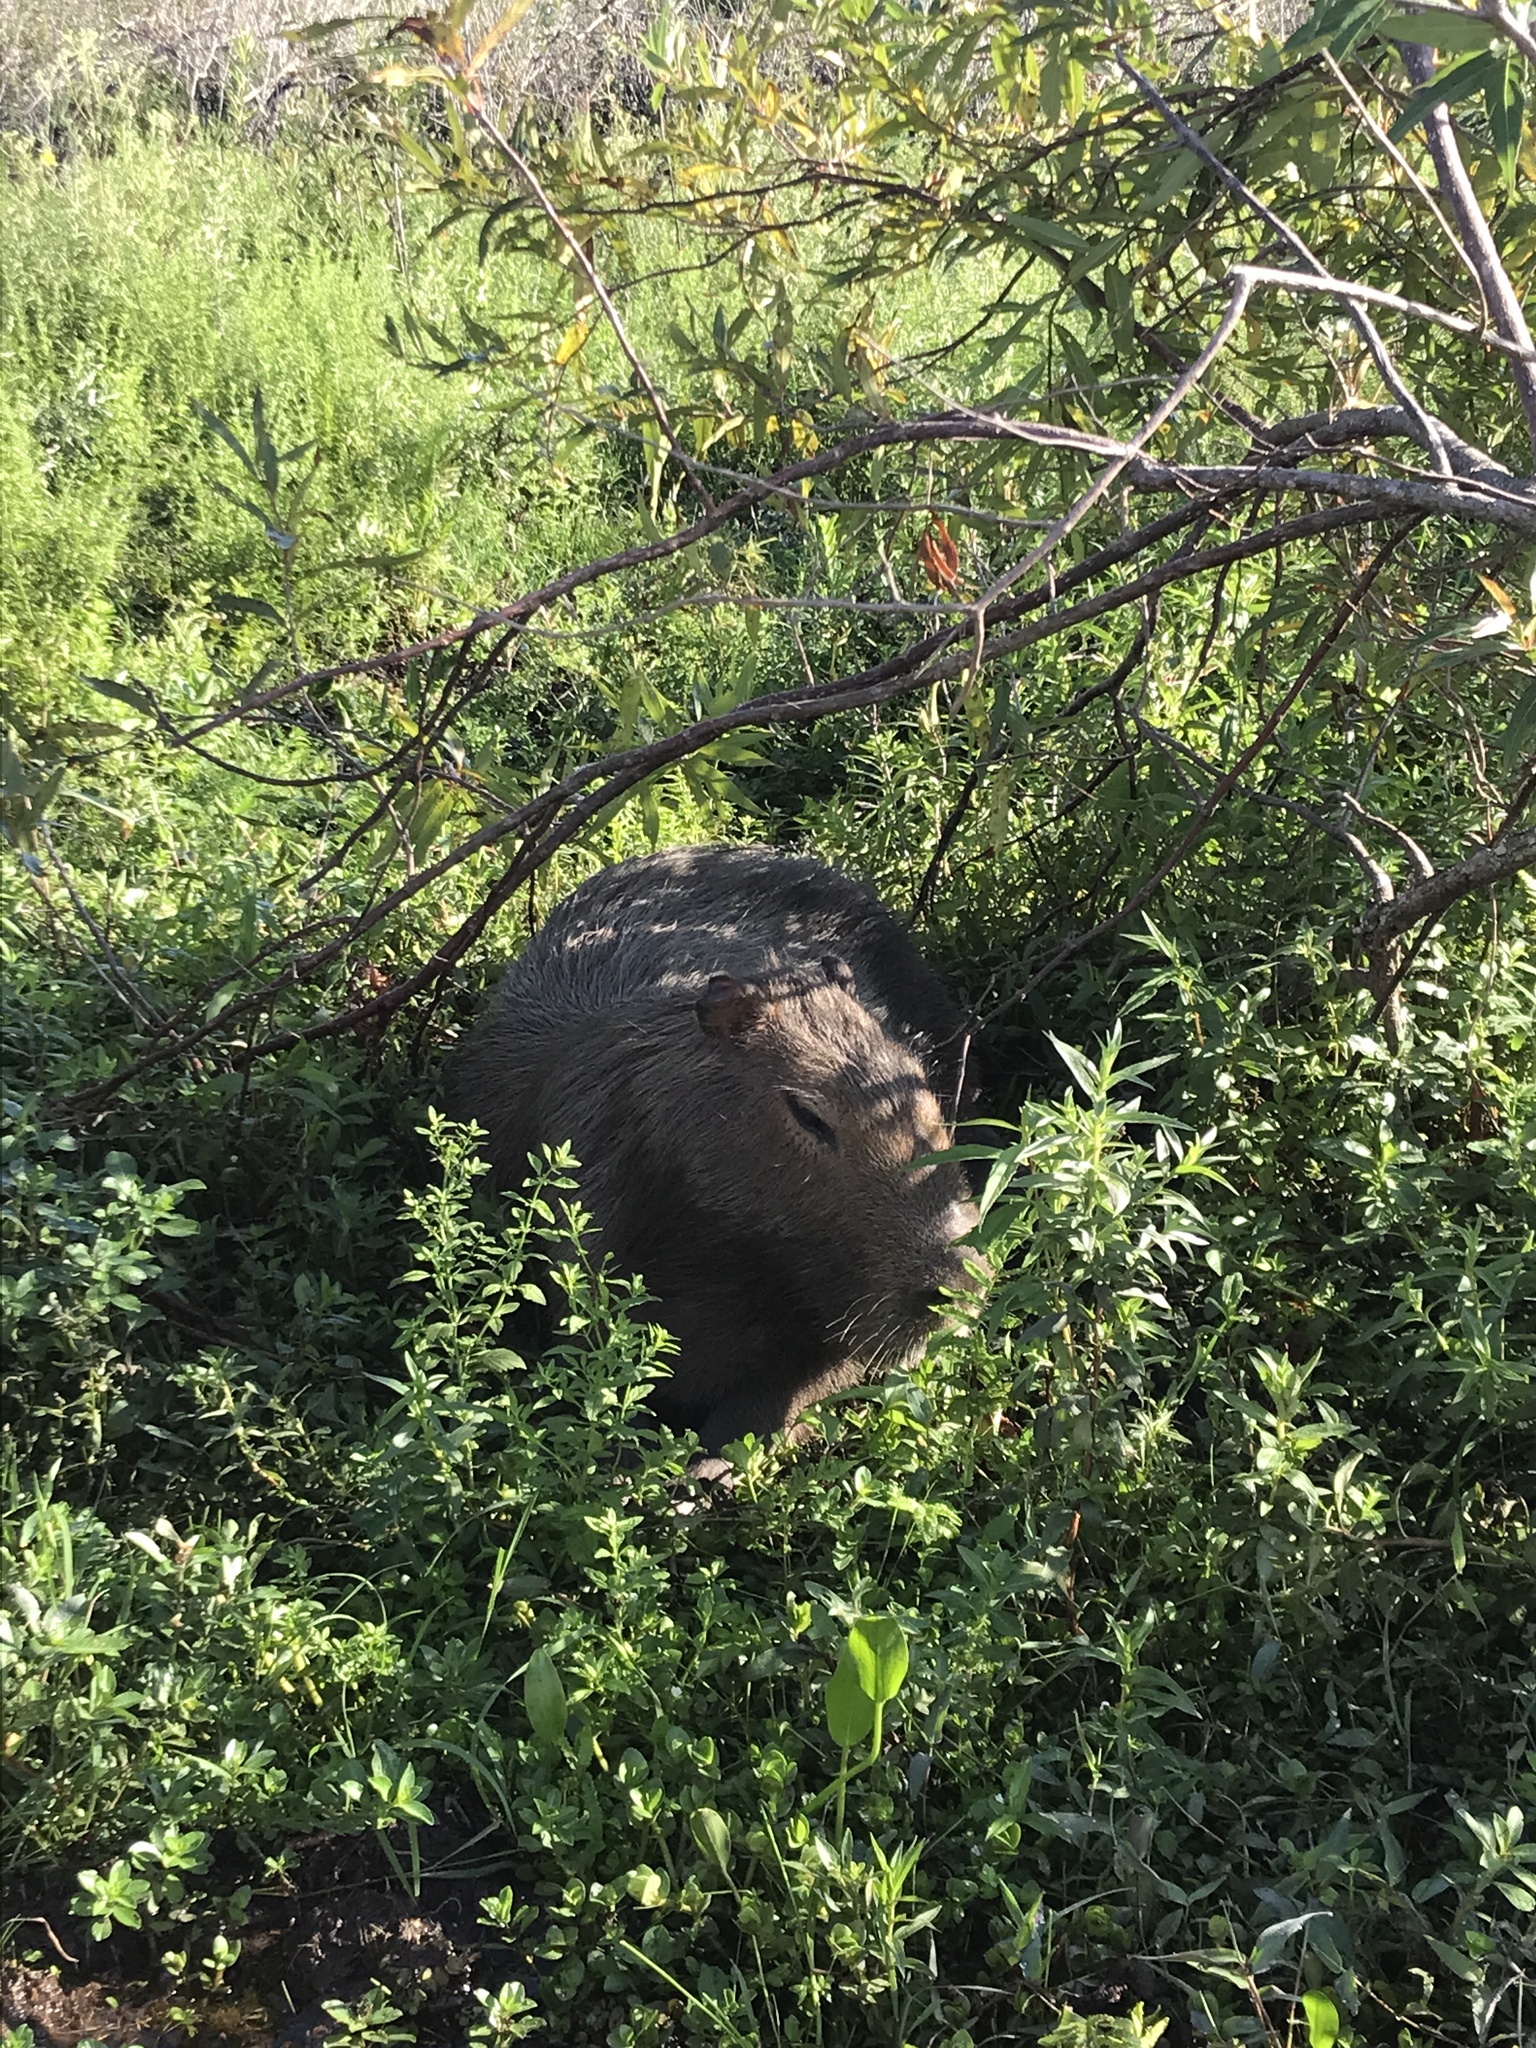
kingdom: Animalia
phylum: Chordata
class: Mammalia
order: Rodentia
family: Caviidae
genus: Hydrochoerus
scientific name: Hydrochoerus hydrochaeris
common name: Capybara
